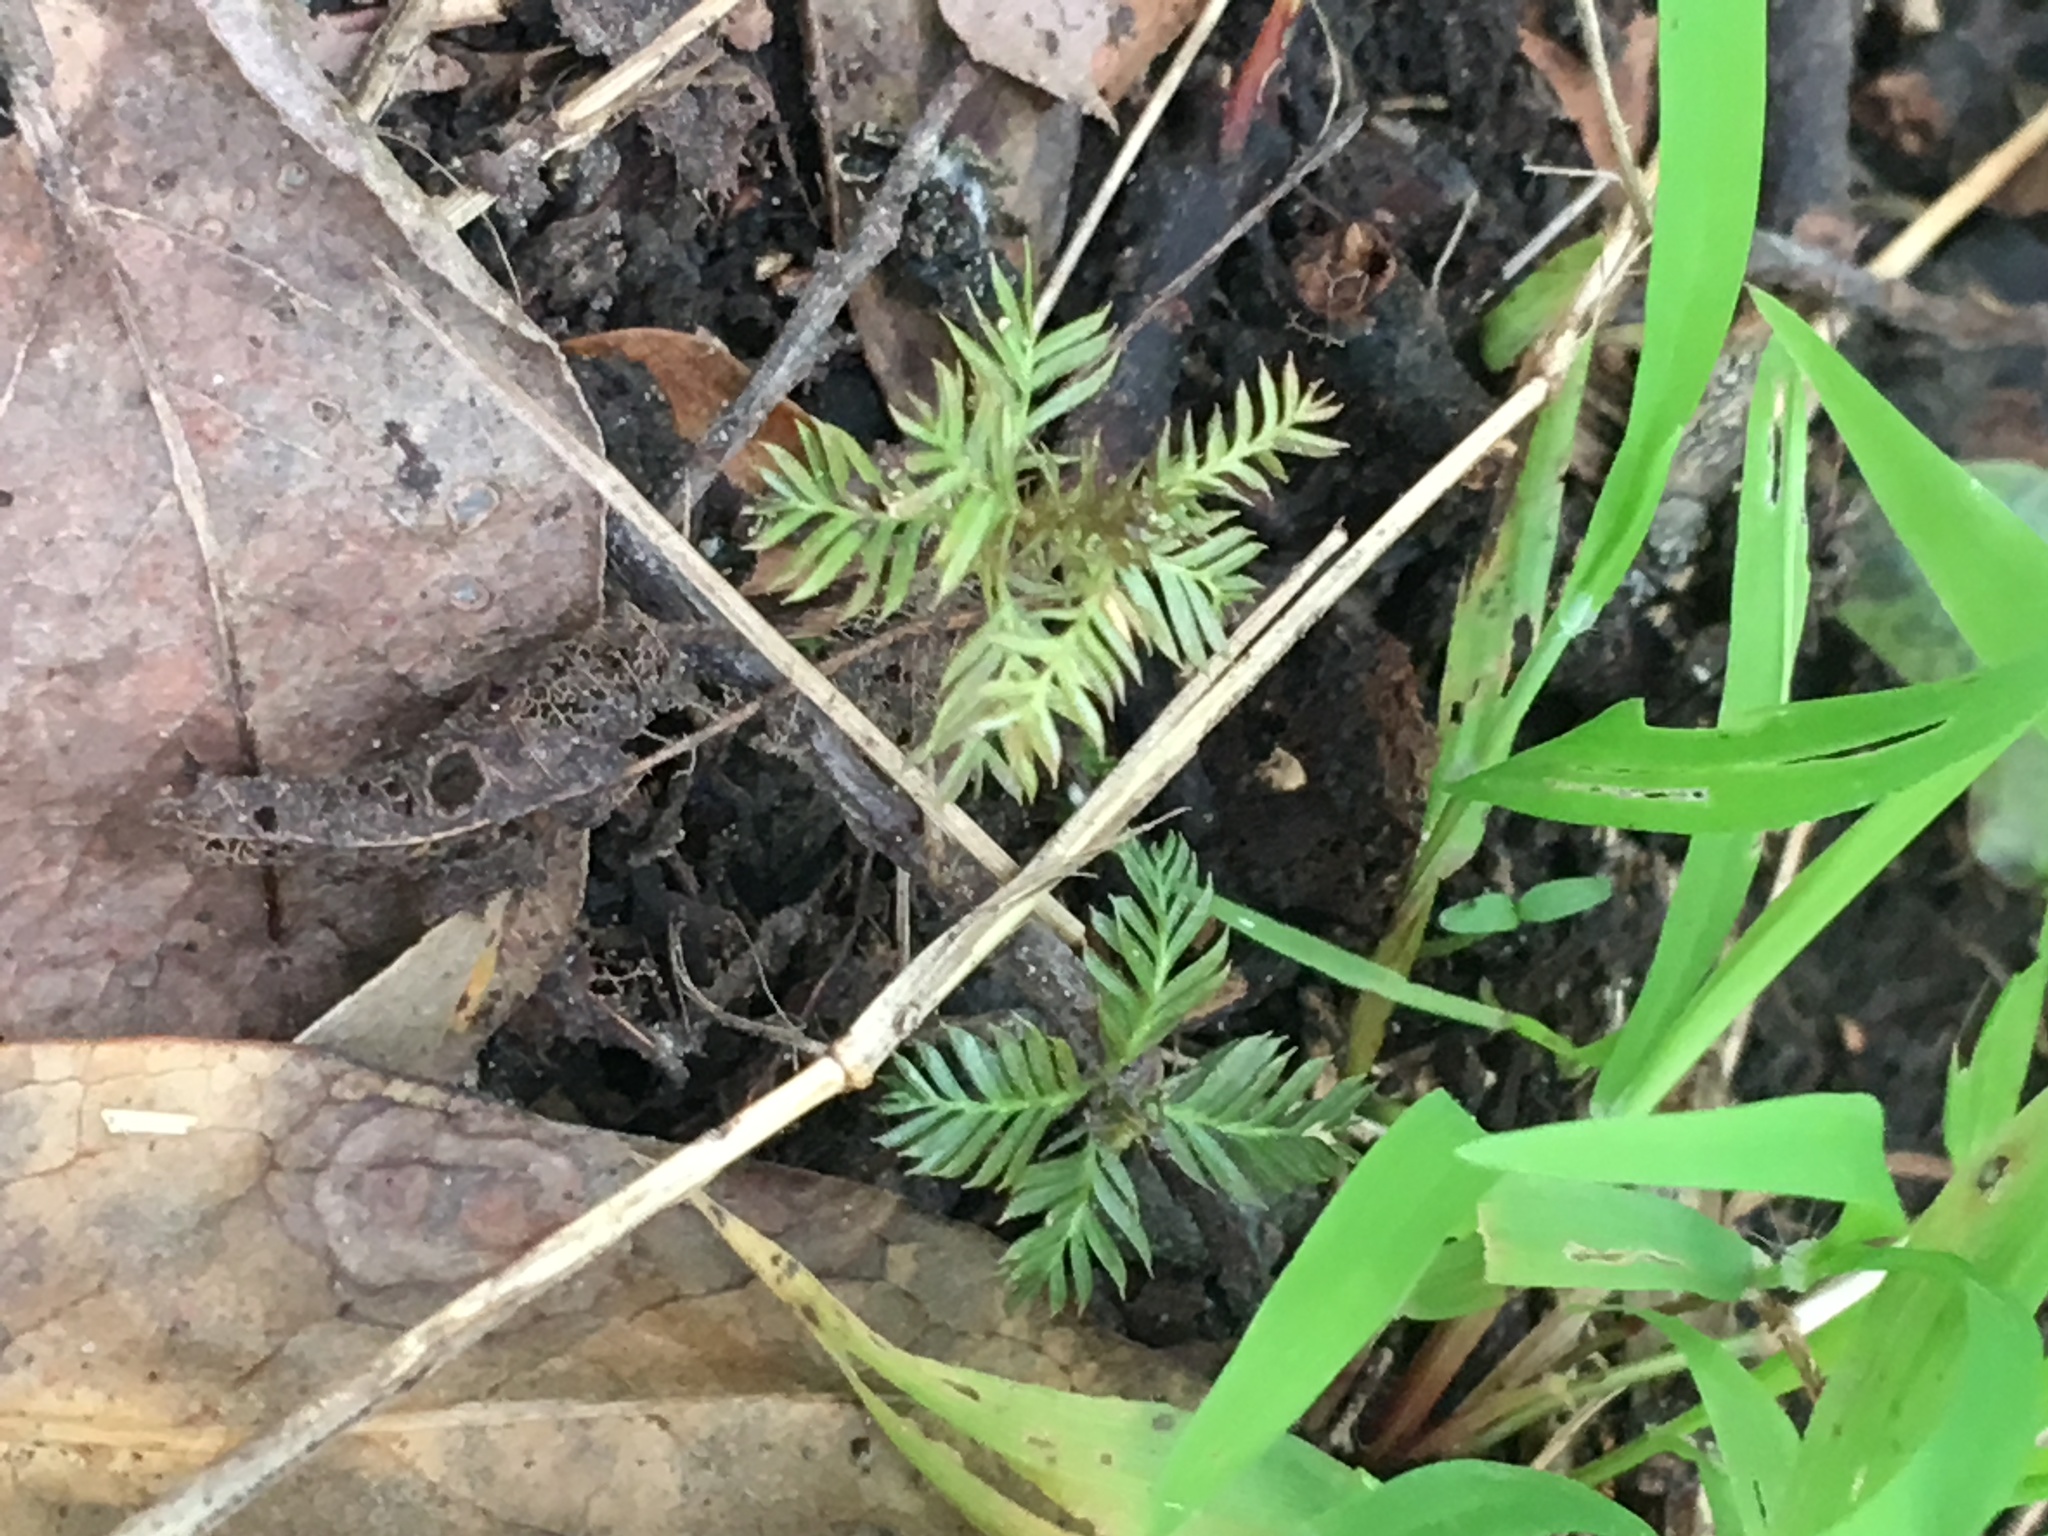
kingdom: Plantae
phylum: Tracheophyta
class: Pinopsida
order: Pinales
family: Podocarpaceae
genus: Dacrycarpus
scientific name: Dacrycarpus dacrydioides
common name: White pine
